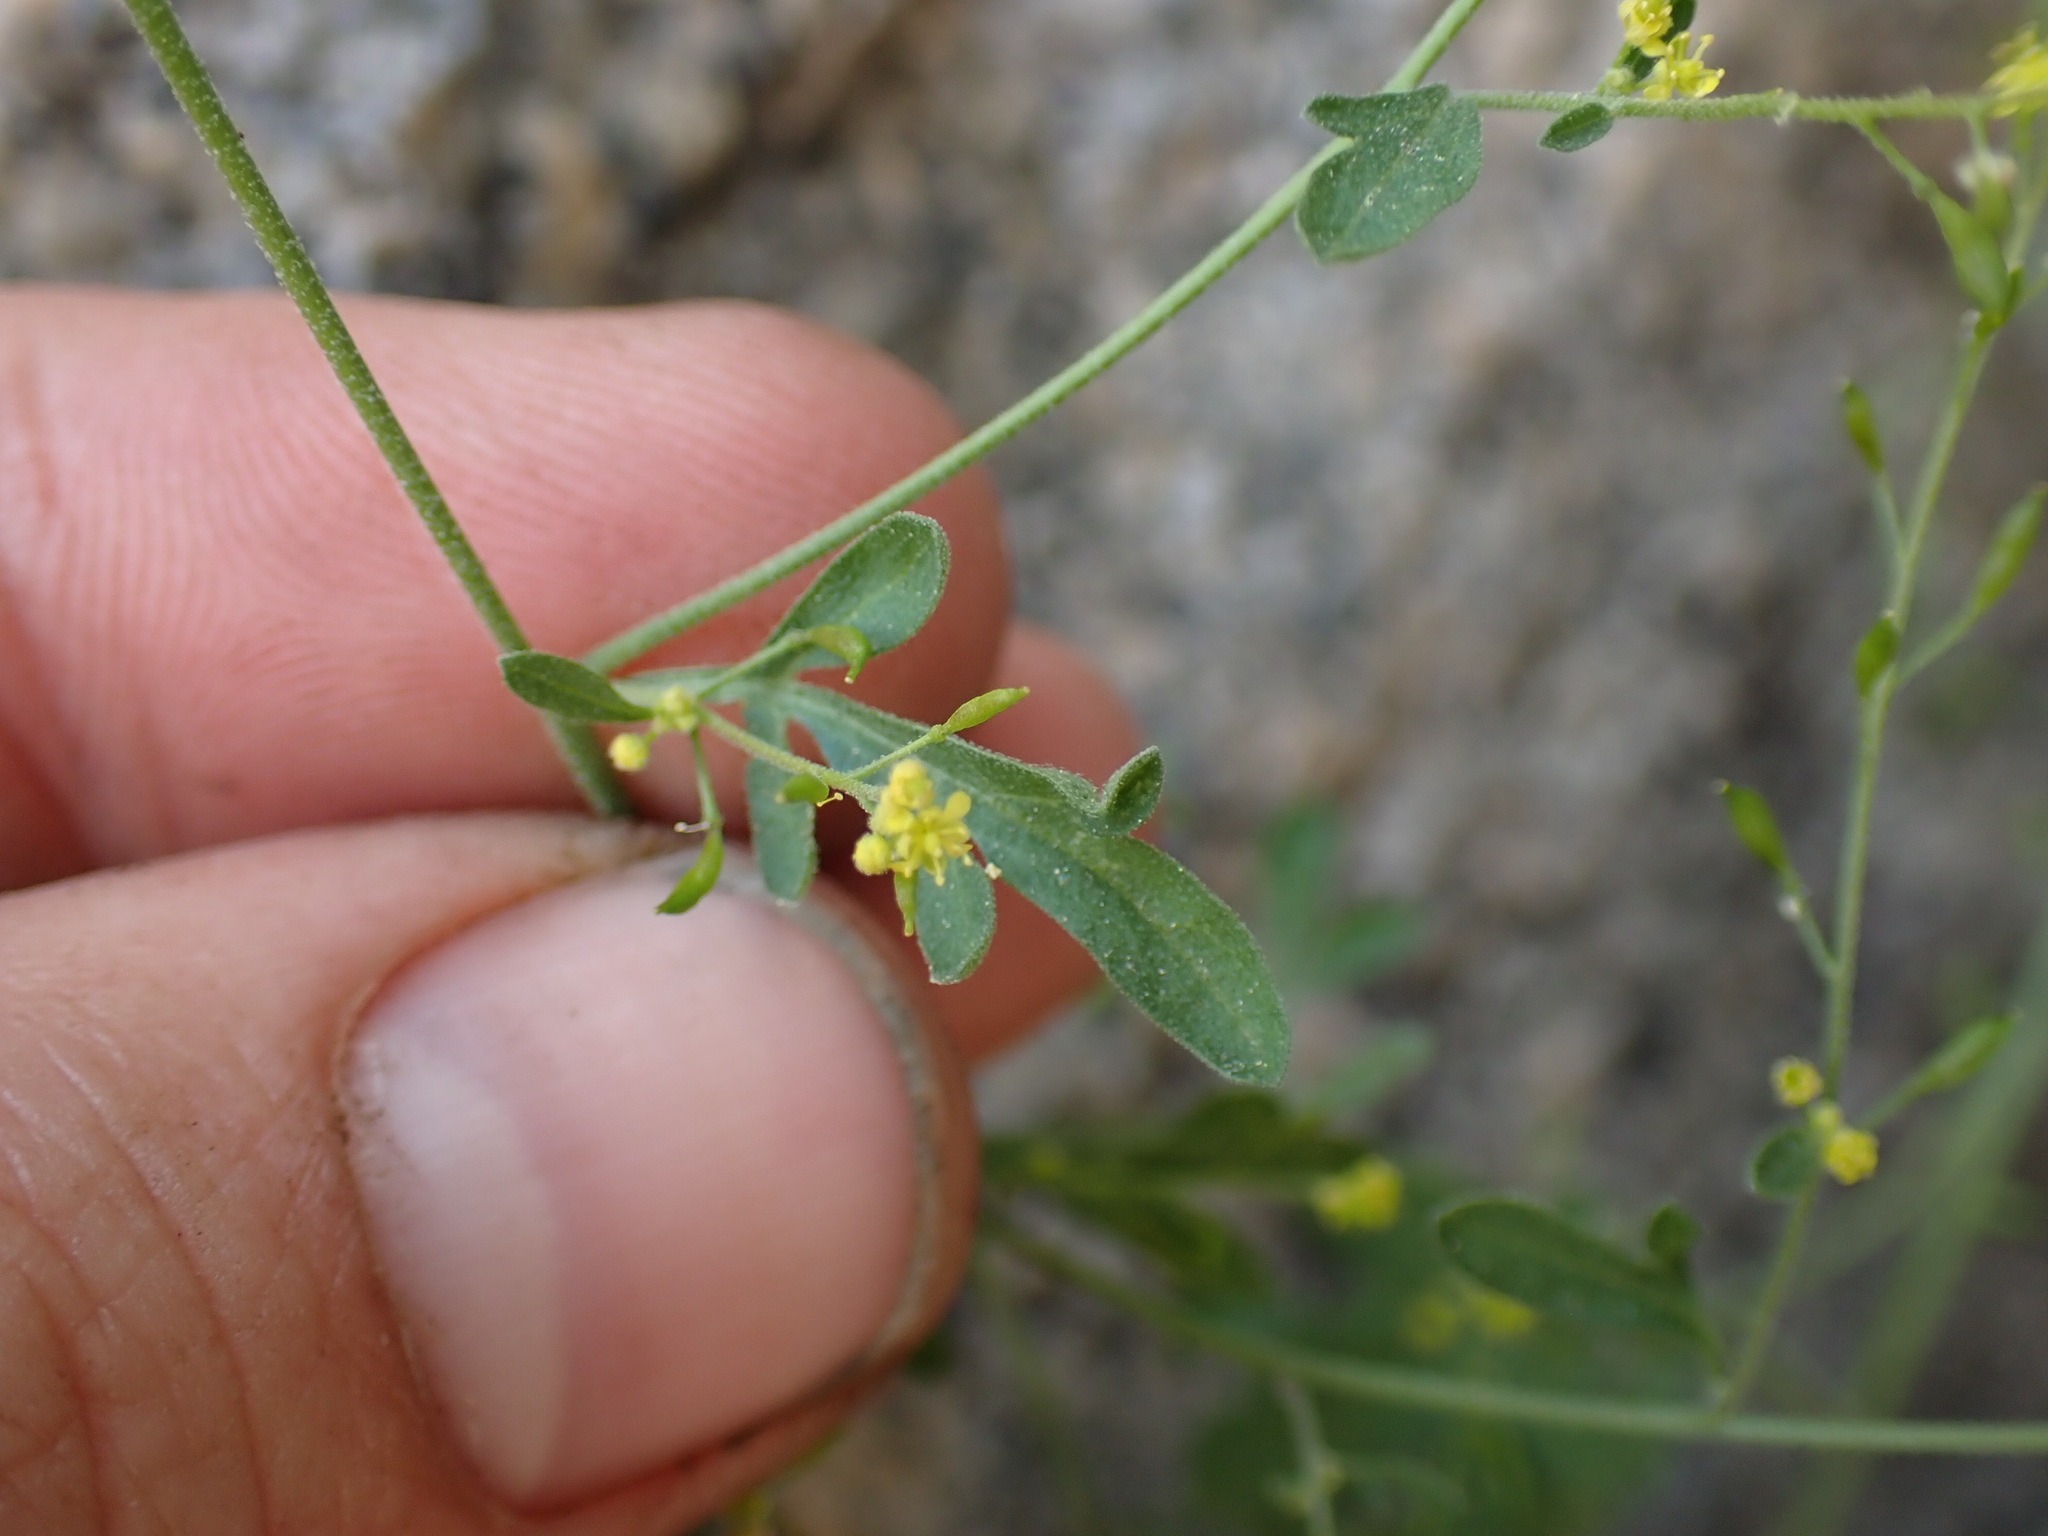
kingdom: Plantae
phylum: Tracheophyta
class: Magnoliopsida
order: Brassicales
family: Brassicaceae
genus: Descurainia
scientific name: Descurainia californica
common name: California tansy mustard
